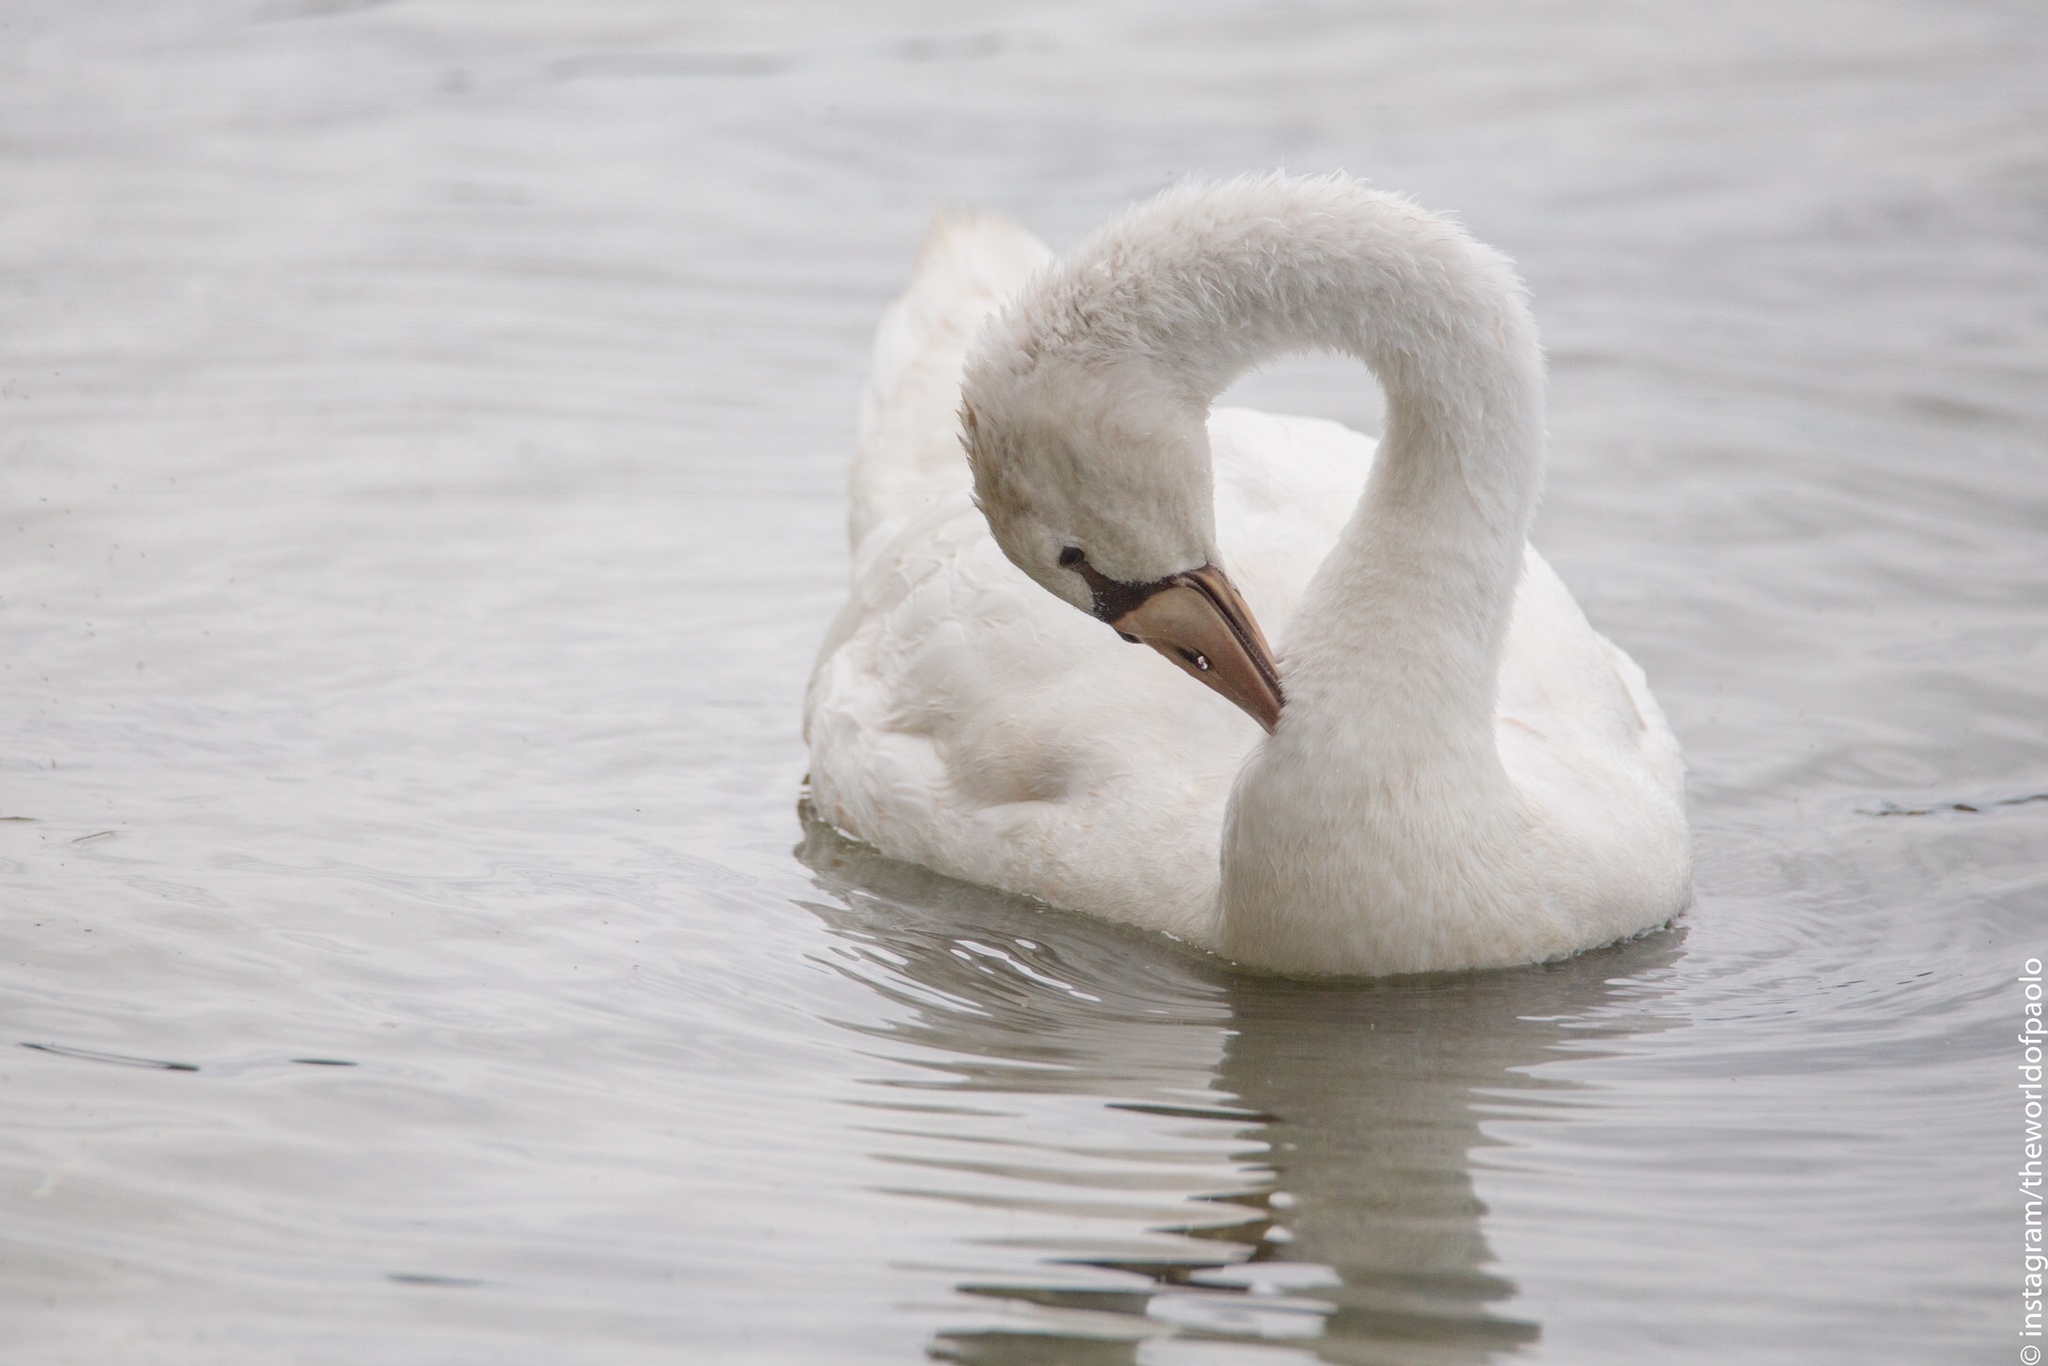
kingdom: Animalia
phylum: Chordata
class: Aves
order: Anseriformes
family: Anatidae
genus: Cygnus
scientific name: Cygnus olor
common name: Mute swan
